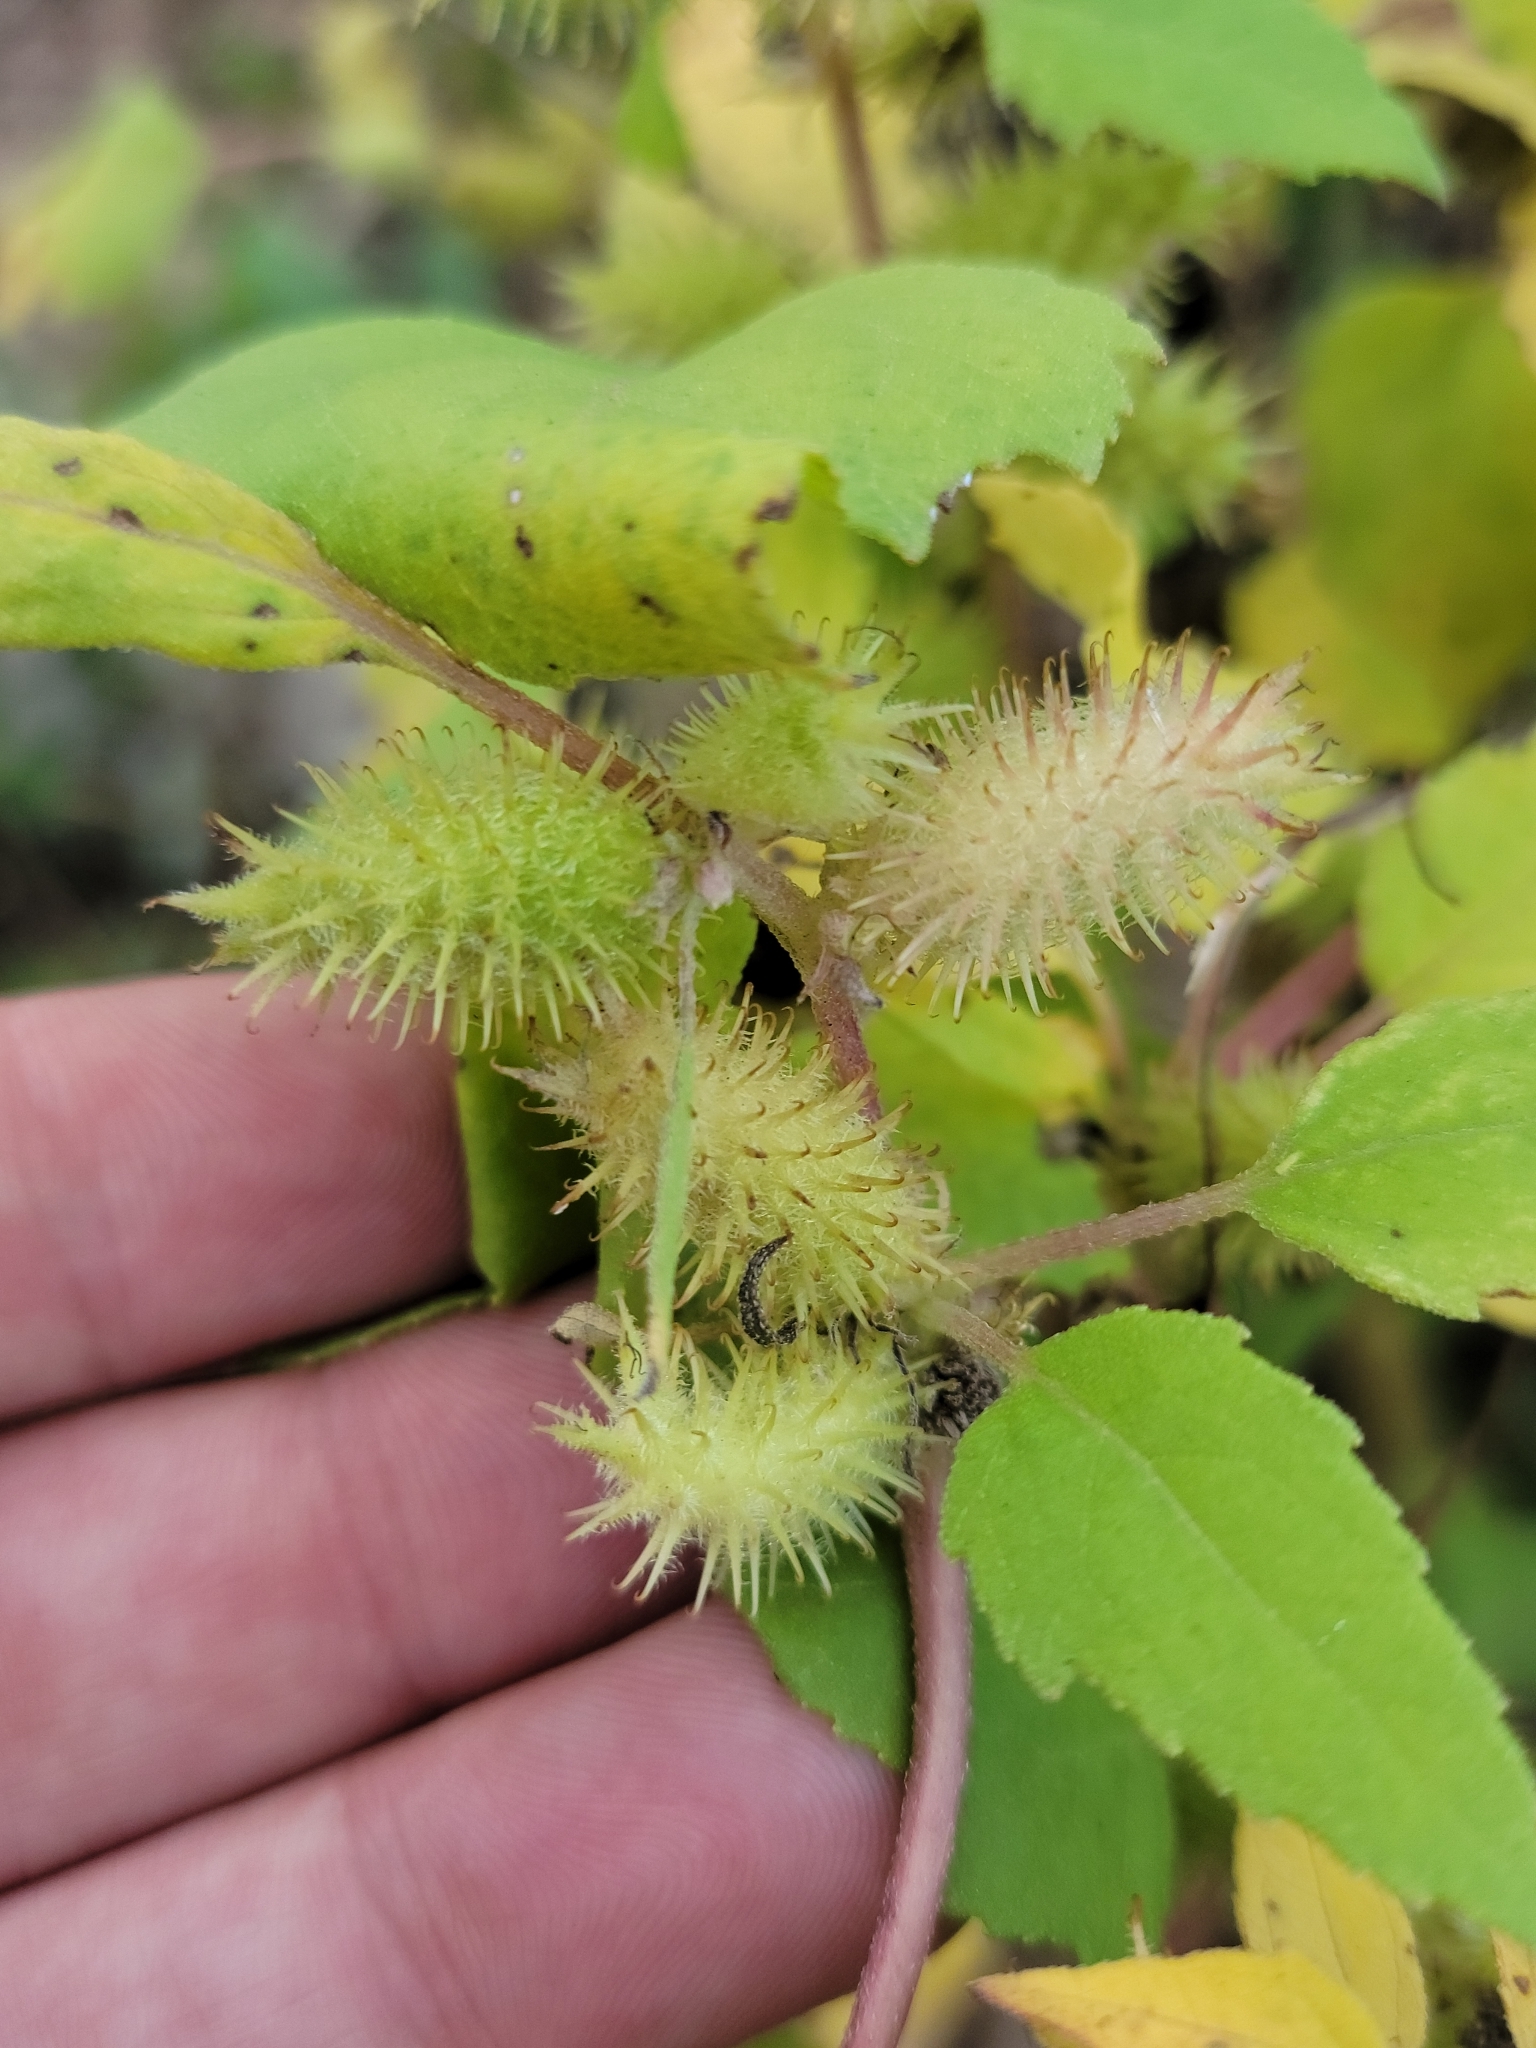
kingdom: Plantae
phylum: Tracheophyta
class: Magnoliopsida
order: Asterales
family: Asteraceae
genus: Xanthium
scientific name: Xanthium strumarium
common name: Rough cocklebur
